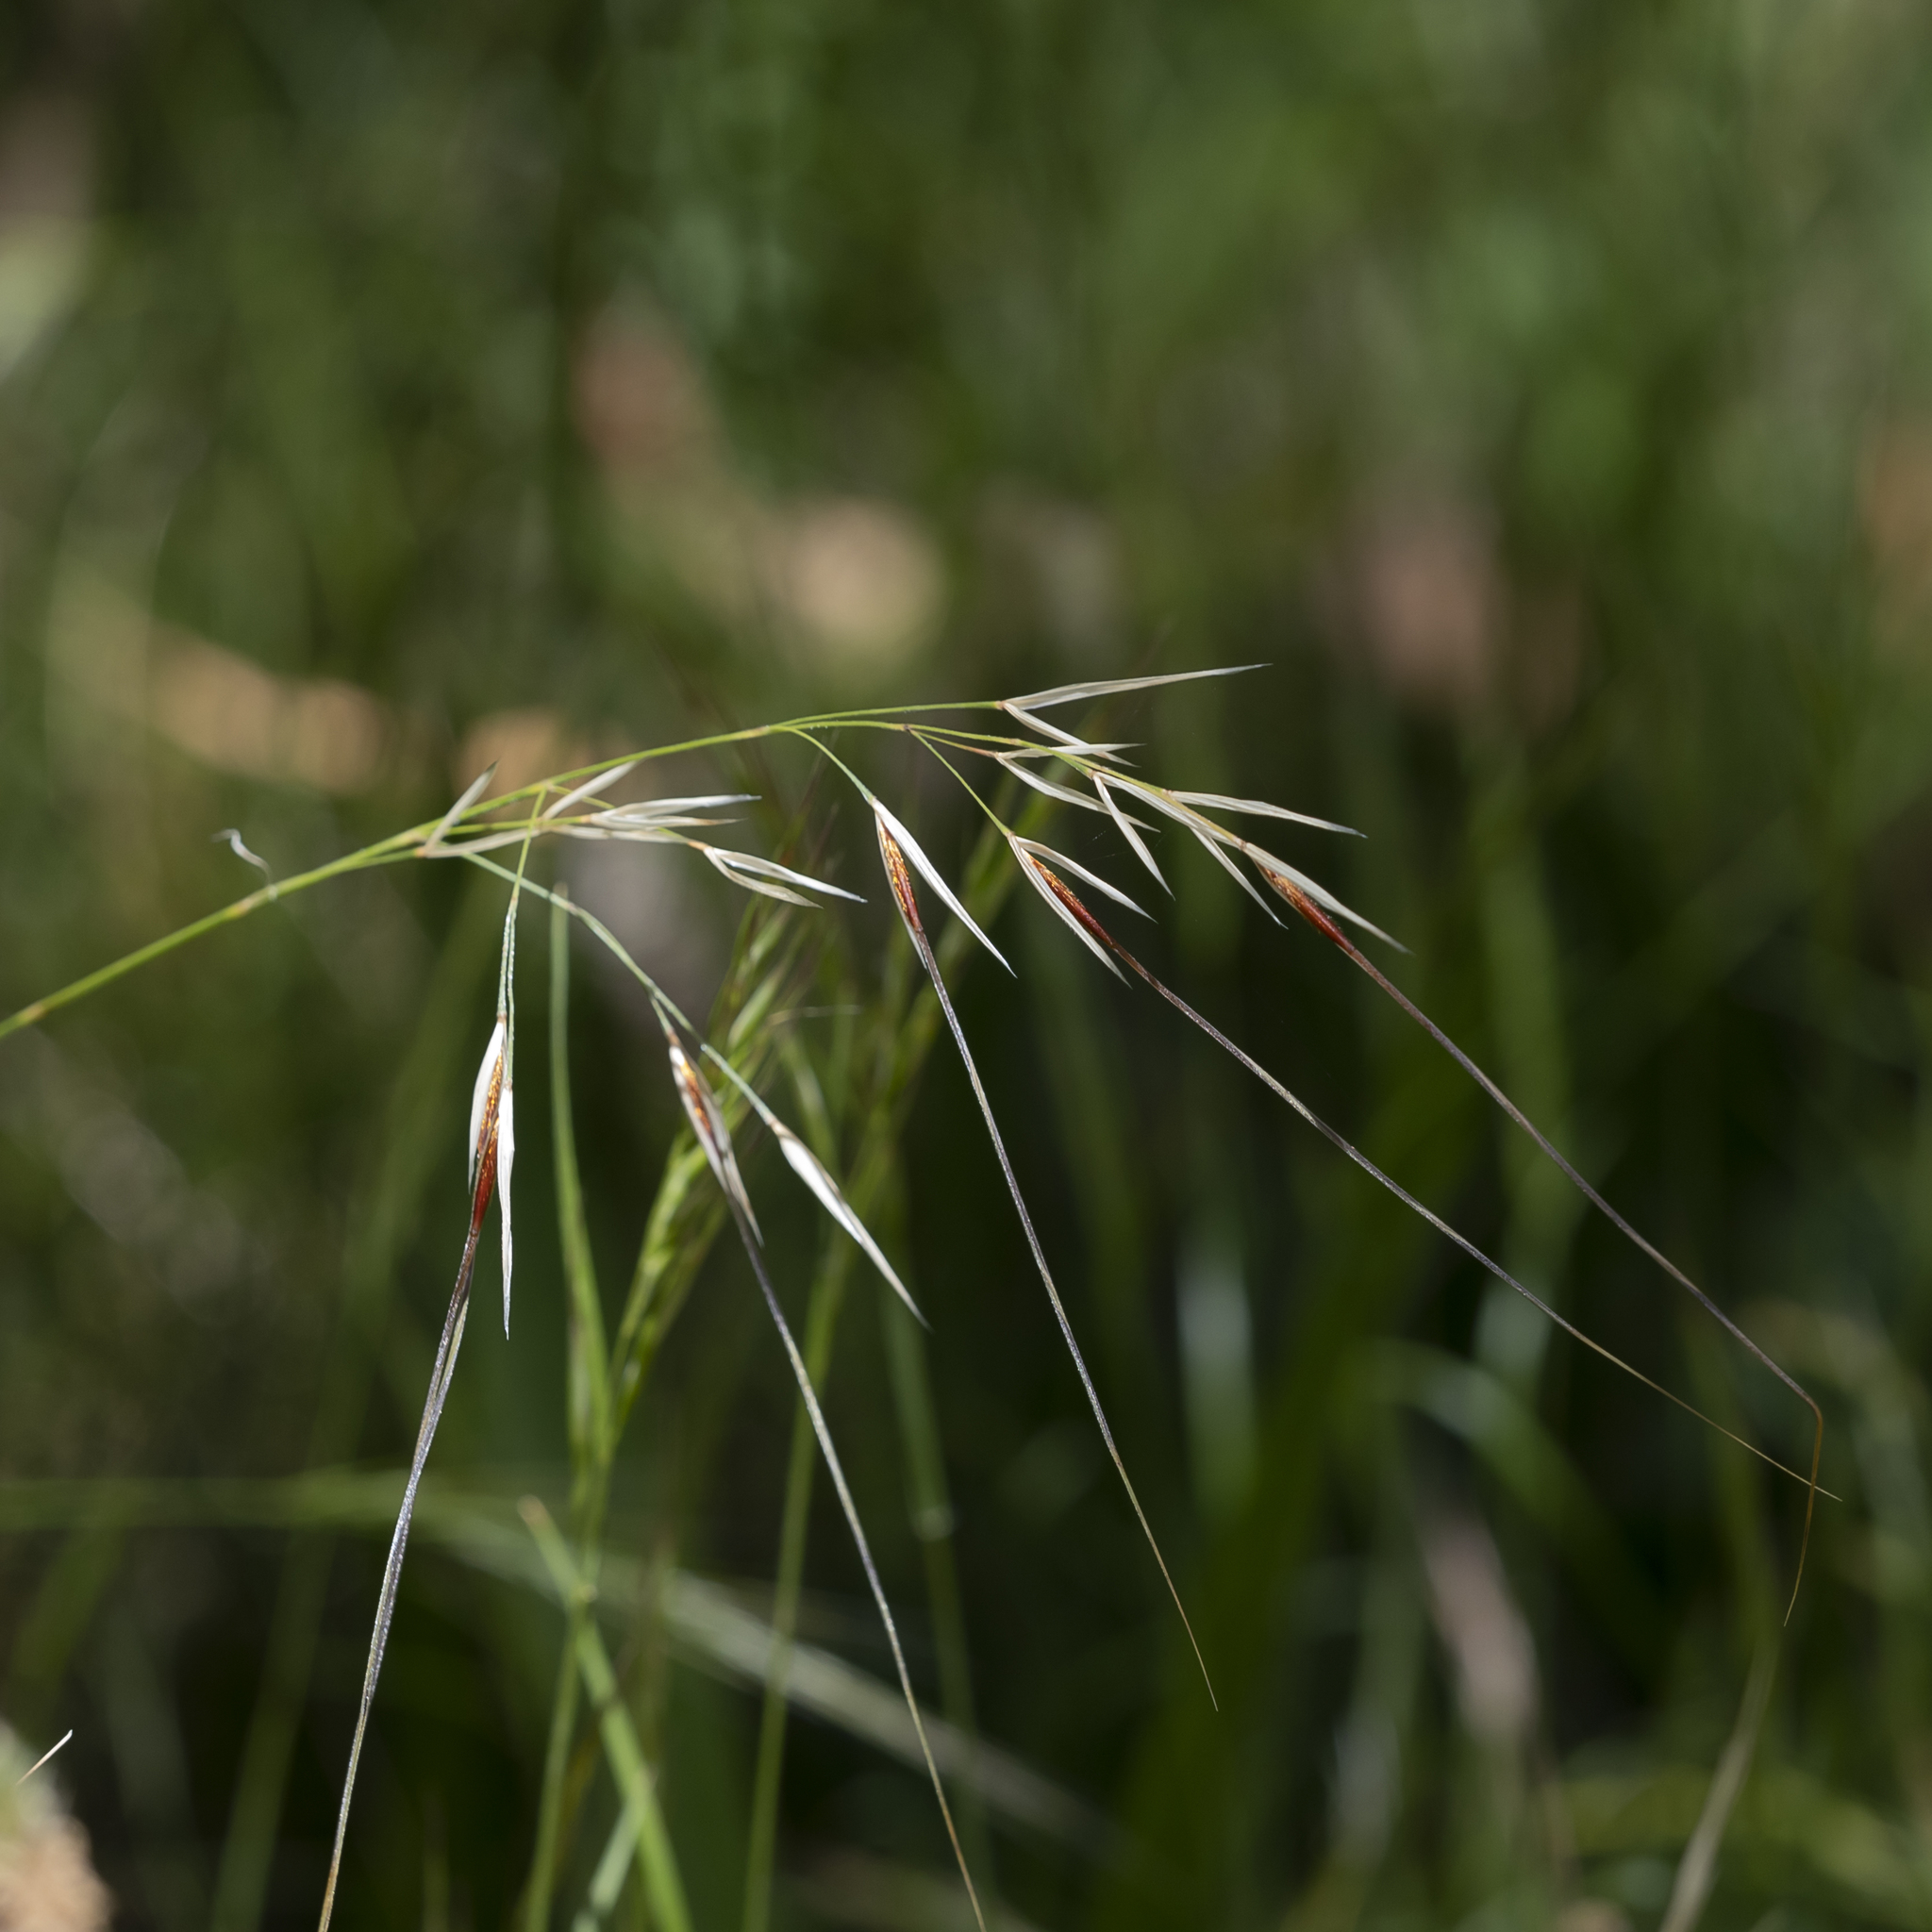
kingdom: Plantae
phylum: Tracheophyta
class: Liliopsida
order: Poales
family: Poaceae
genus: Austrostipa
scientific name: Austrostipa pubinodis
